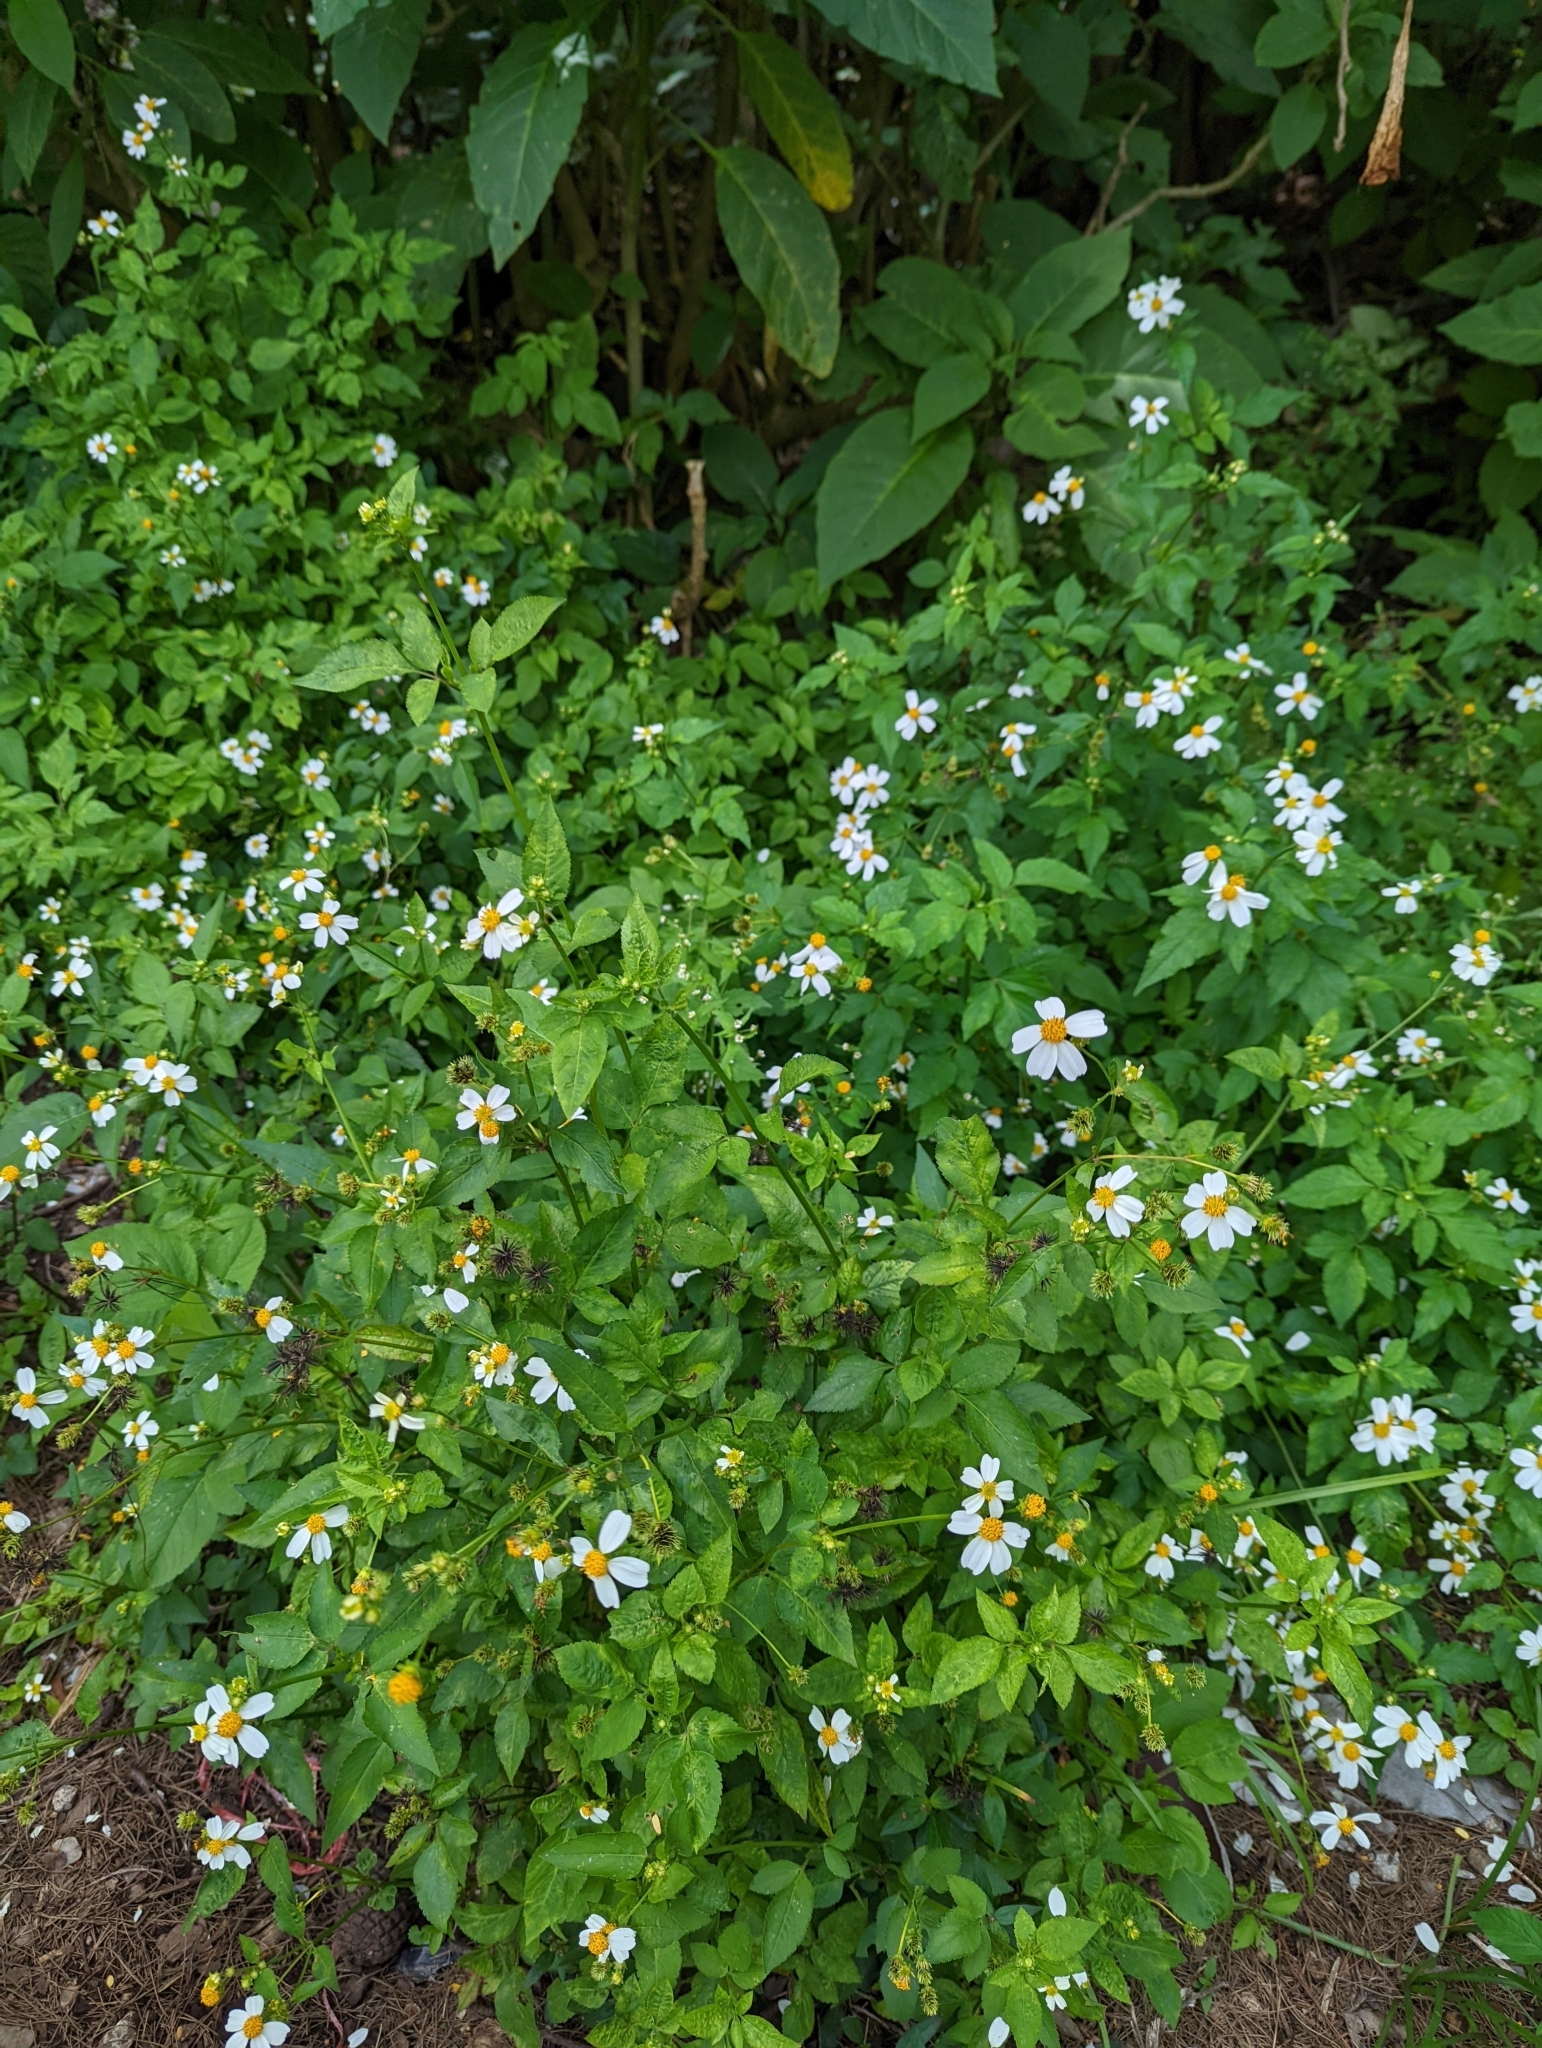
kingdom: Plantae
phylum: Tracheophyta
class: Magnoliopsida
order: Asterales
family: Asteraceae
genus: Bidens
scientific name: Bidens pilosa
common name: Black-jack
